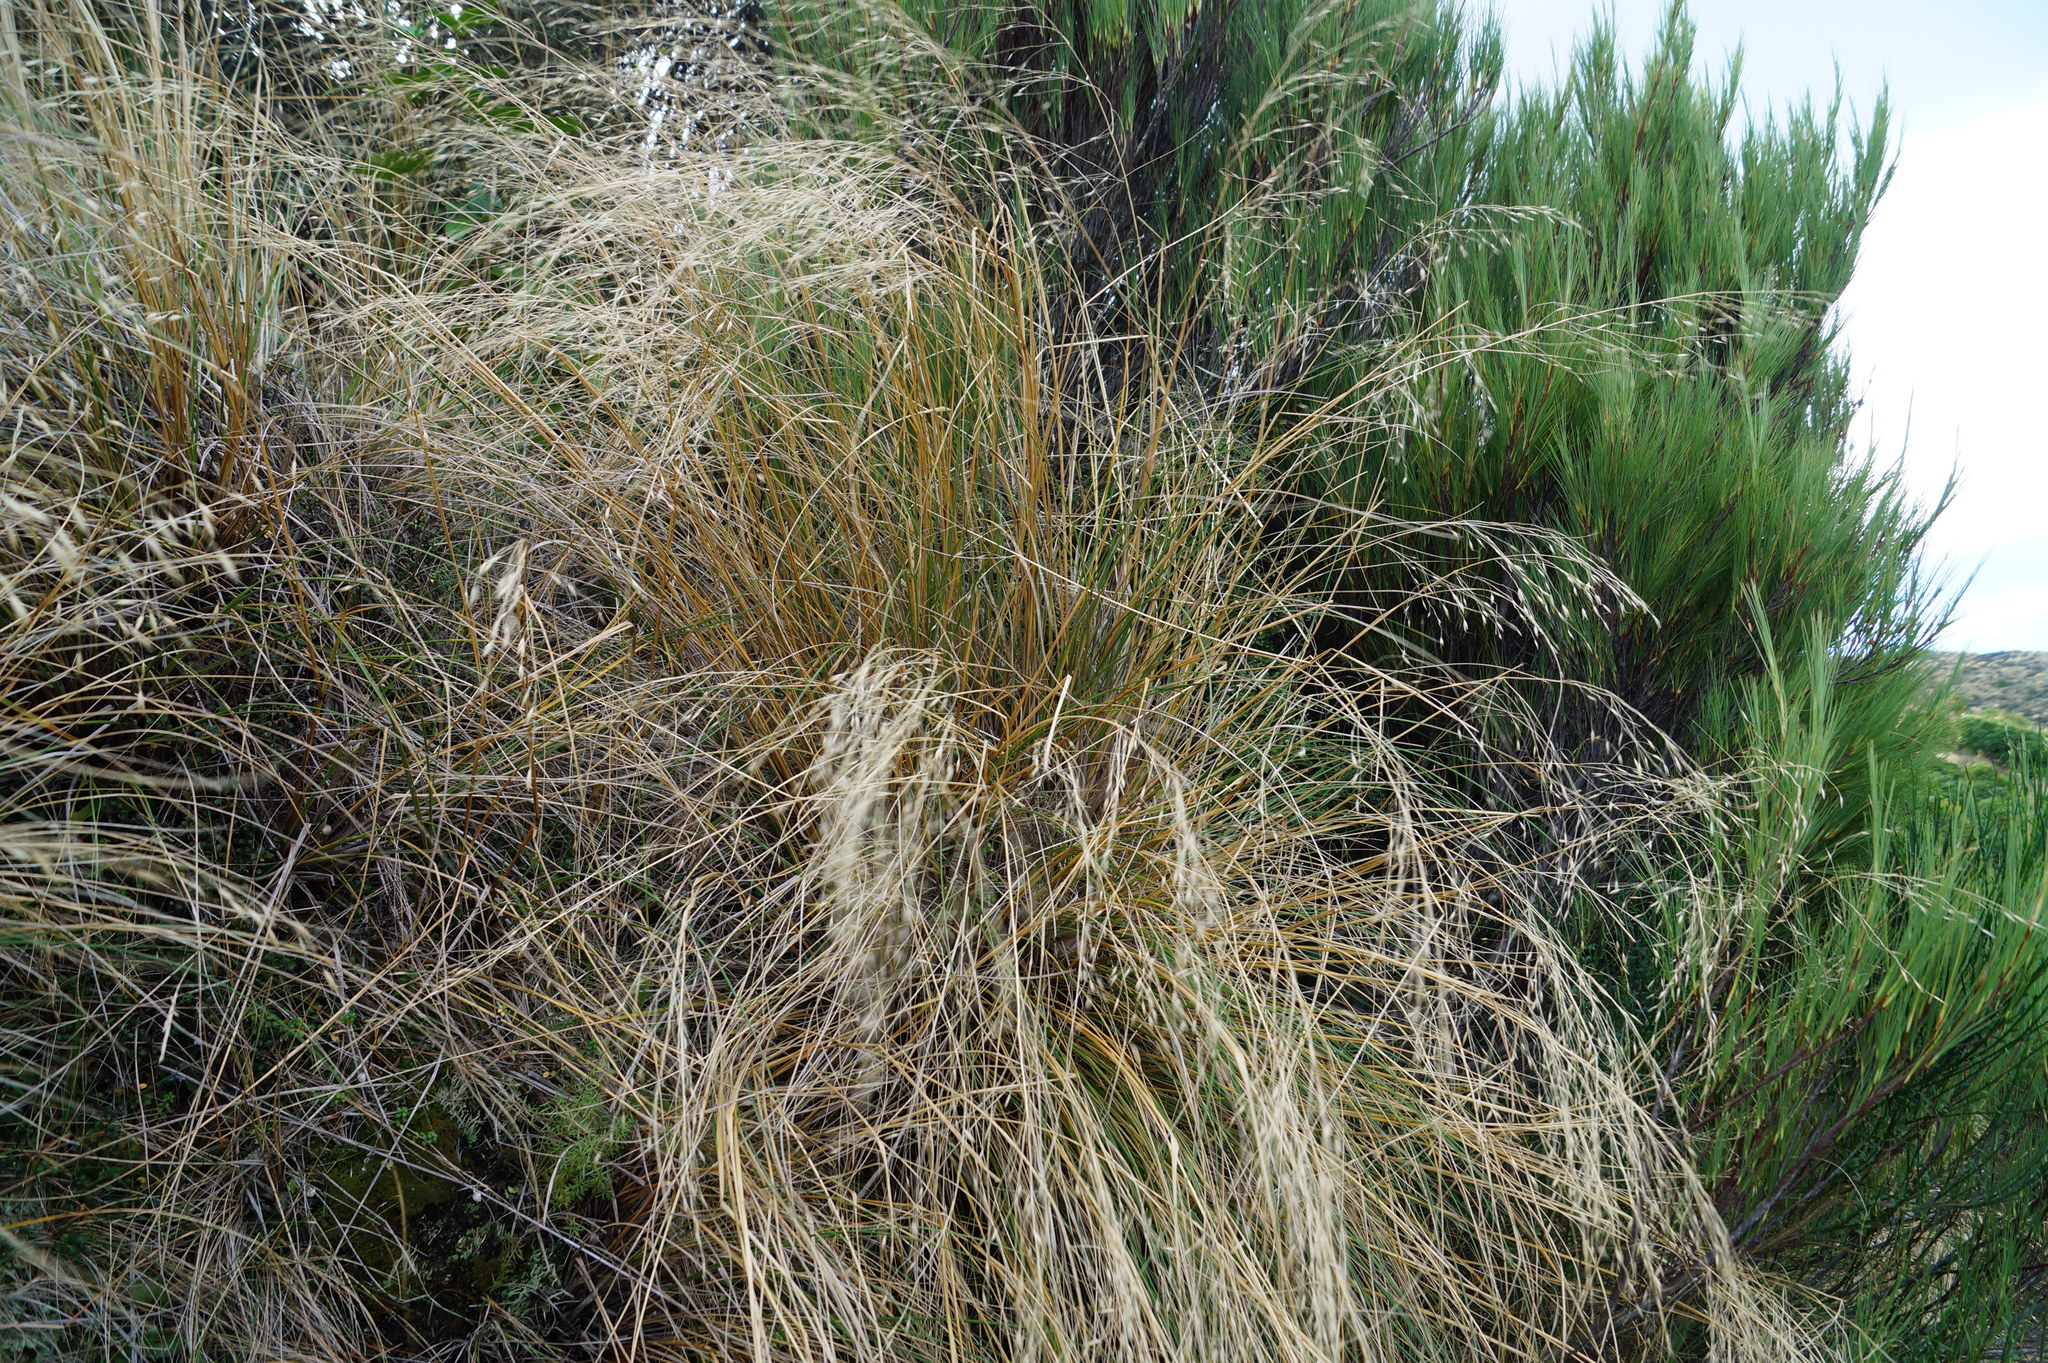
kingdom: Plantae
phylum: Tracheophyta
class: Liliopsida
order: Poales
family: Poaceae
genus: Chionochloa
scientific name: Chionochloa rigida
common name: Narrow leaved snow tussock
